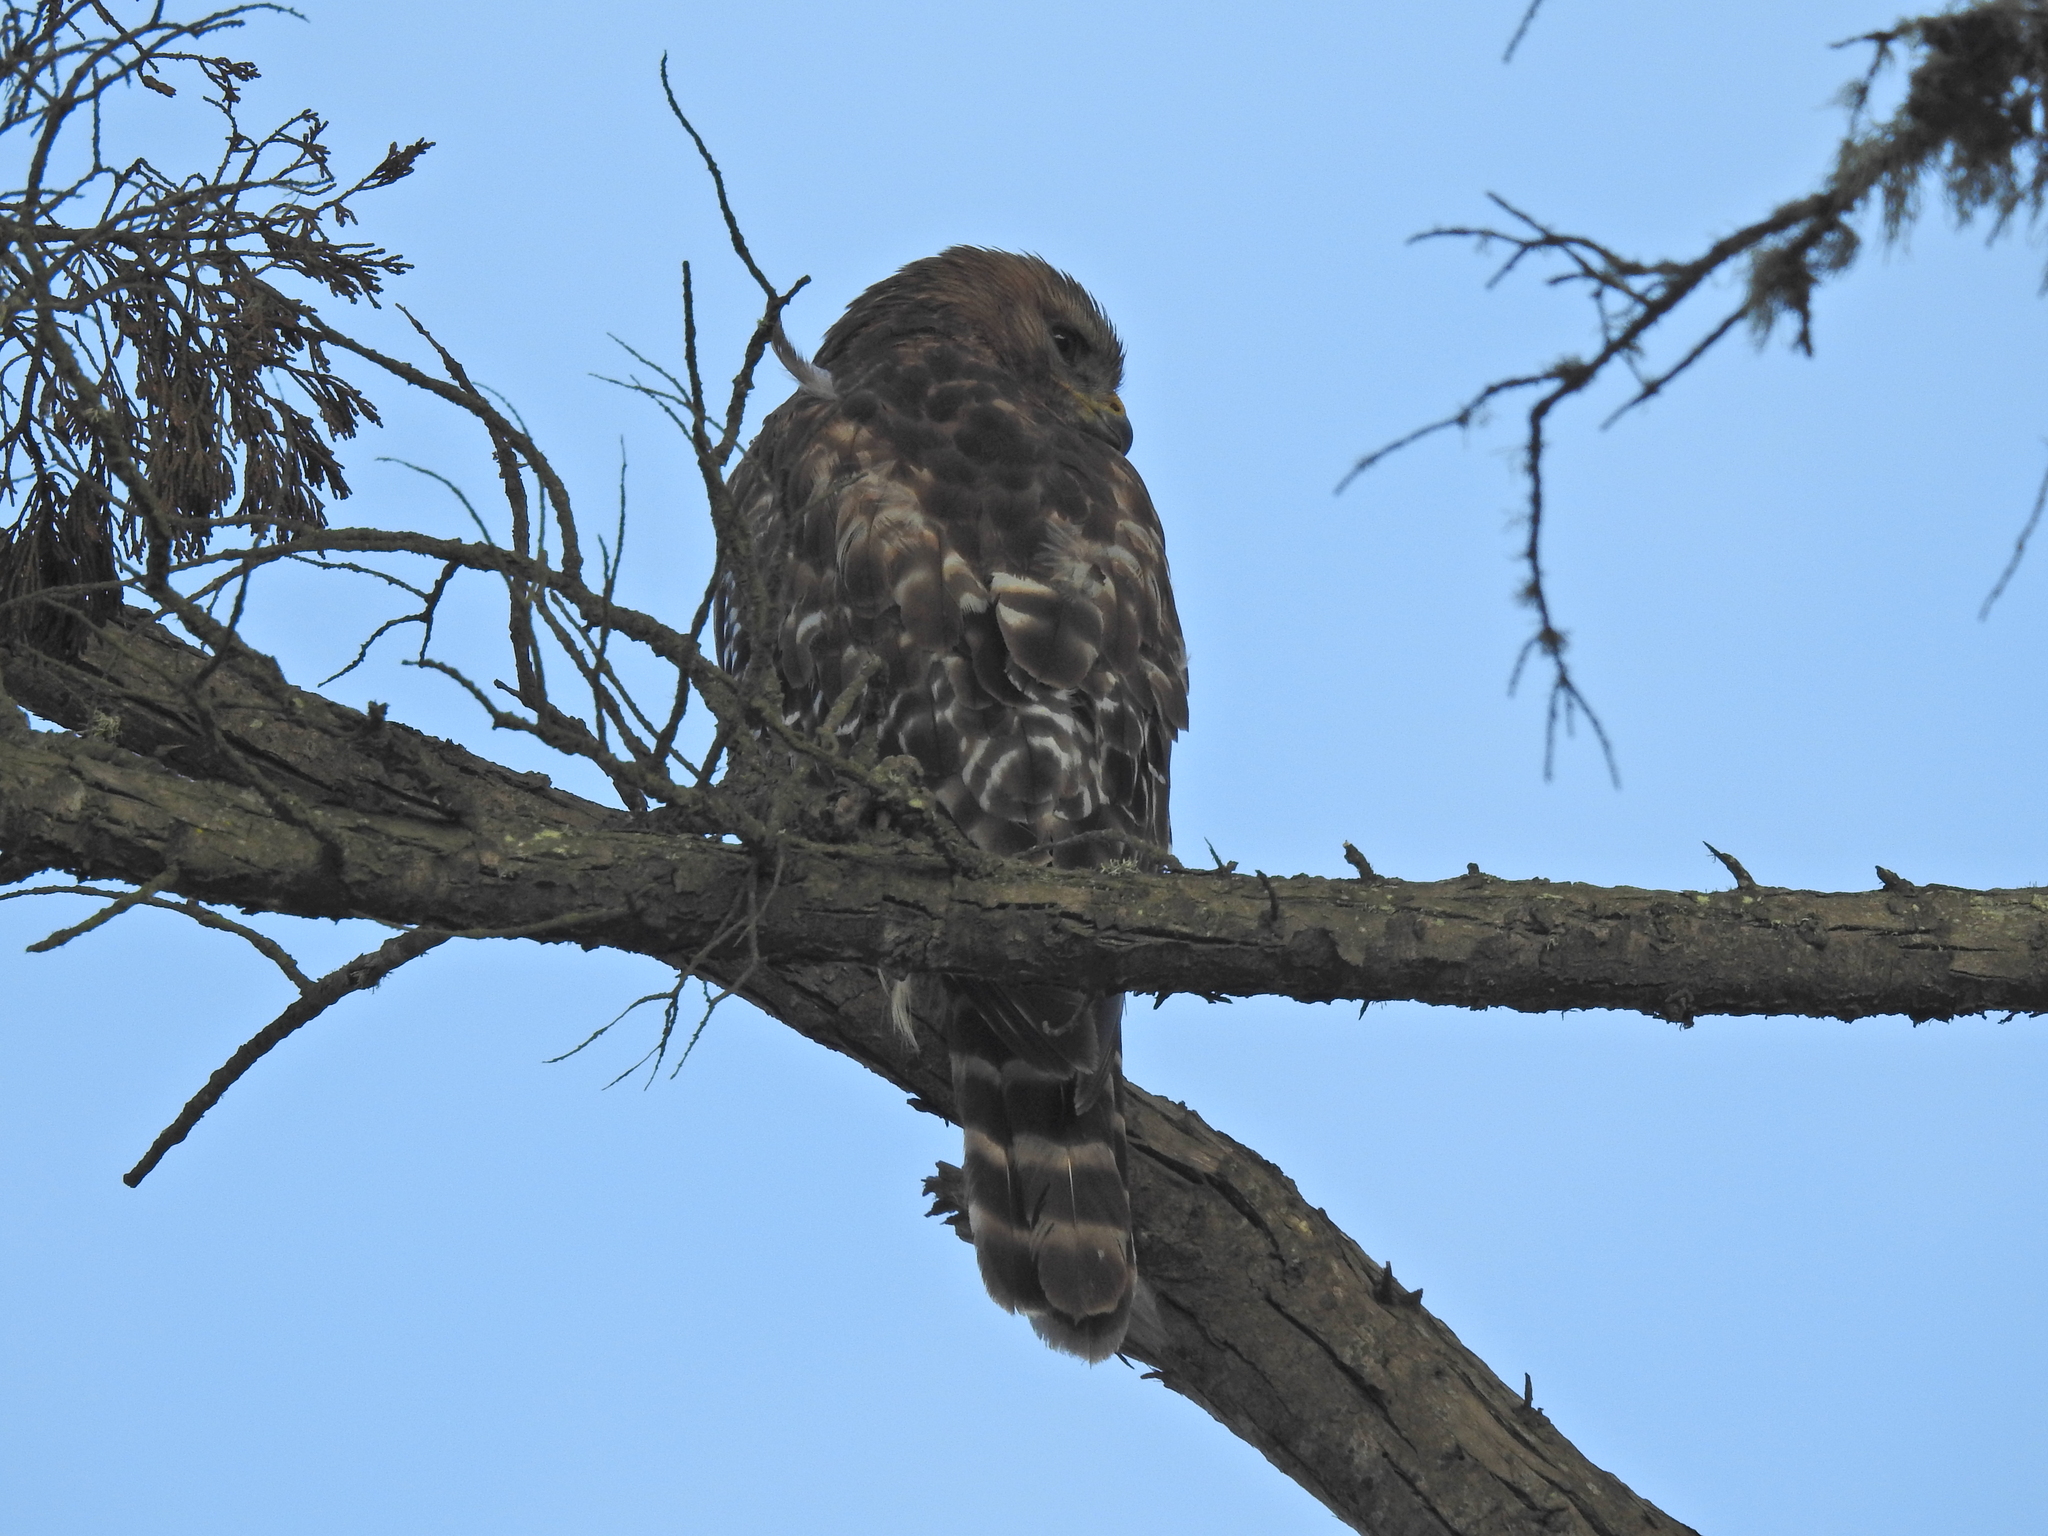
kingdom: Animalia
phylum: Chordata
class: Aves
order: Accipitriformes
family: Accipitridae
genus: Buteo
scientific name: Buteo lineatus
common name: Red-shouldered hawk
